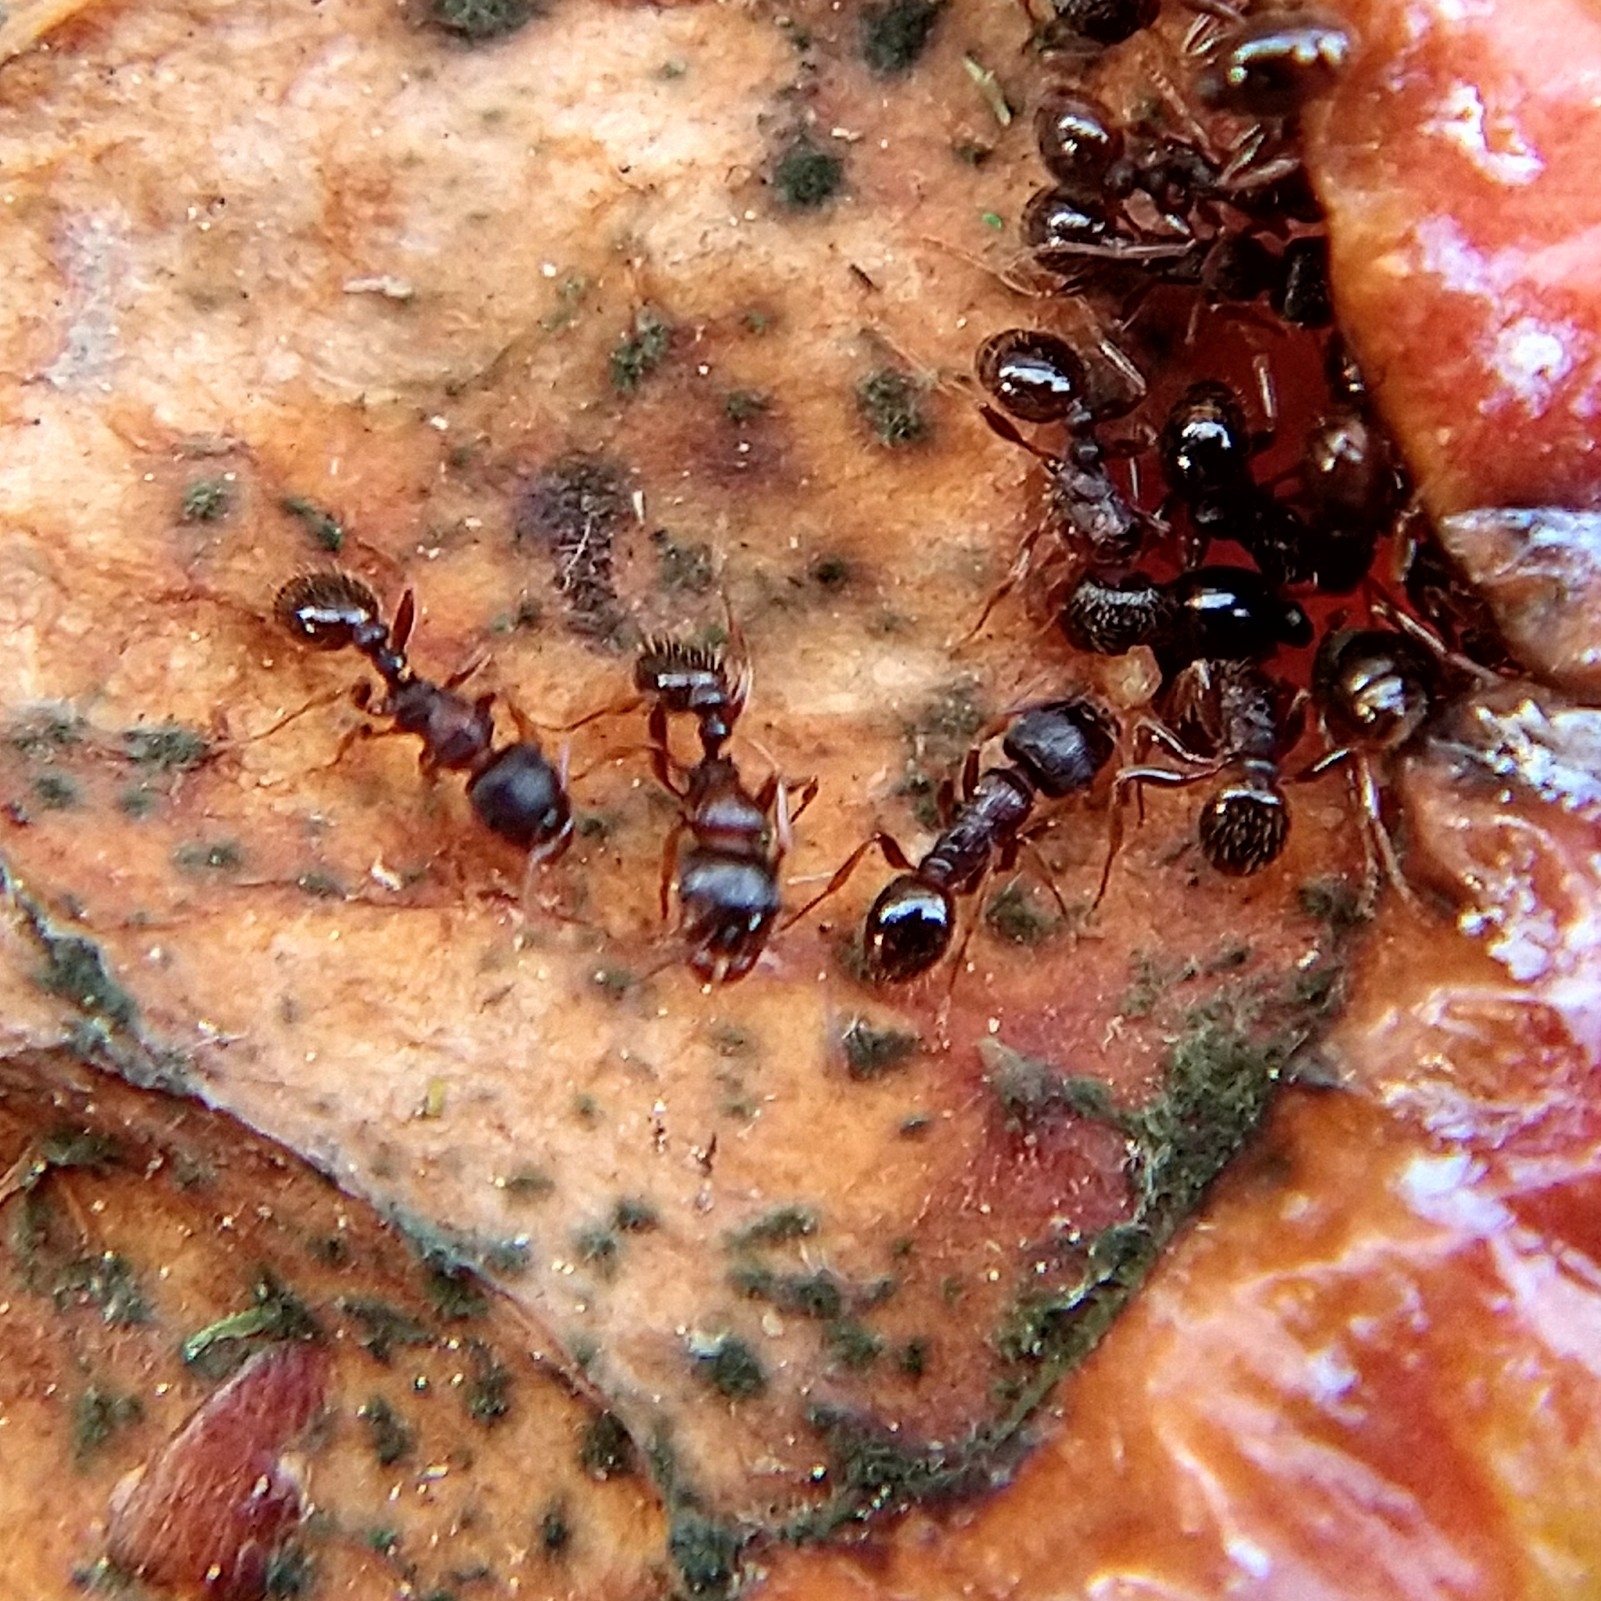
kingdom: Animalia
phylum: Arthropoda
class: Insecta
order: Hymenoptera
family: Formicidae
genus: Tetramorium
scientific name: Tetramorium immigrans
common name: Pavement ant
